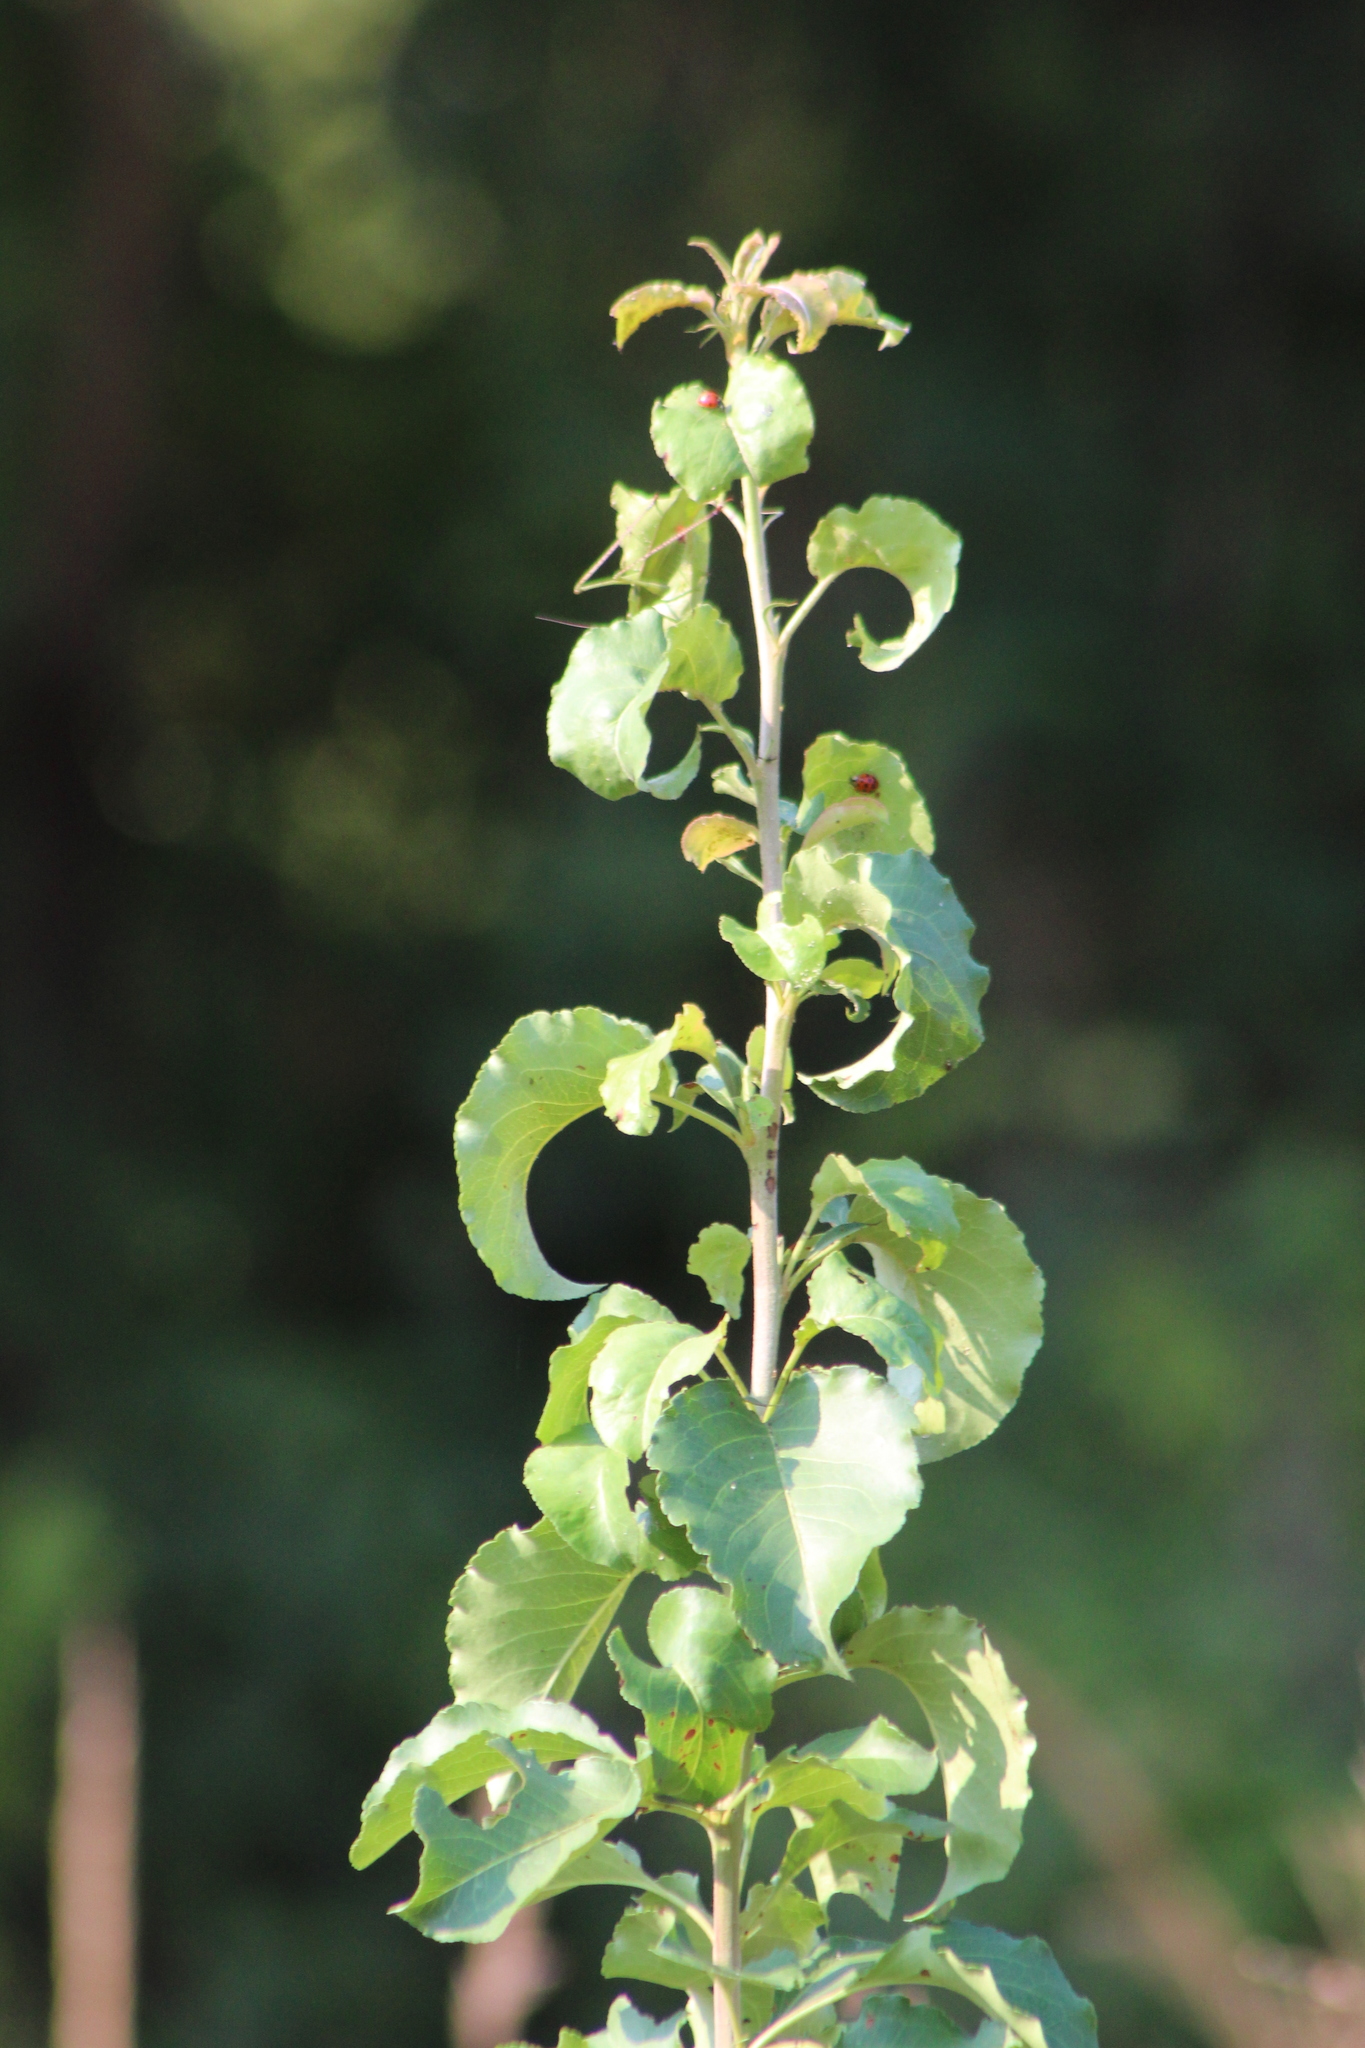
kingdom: Plantae
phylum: Tracheophyta
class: Magnoliopsida
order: Rosales
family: Rosaceae
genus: Pyrus
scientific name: Pyrus calleryana
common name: Callery pear
